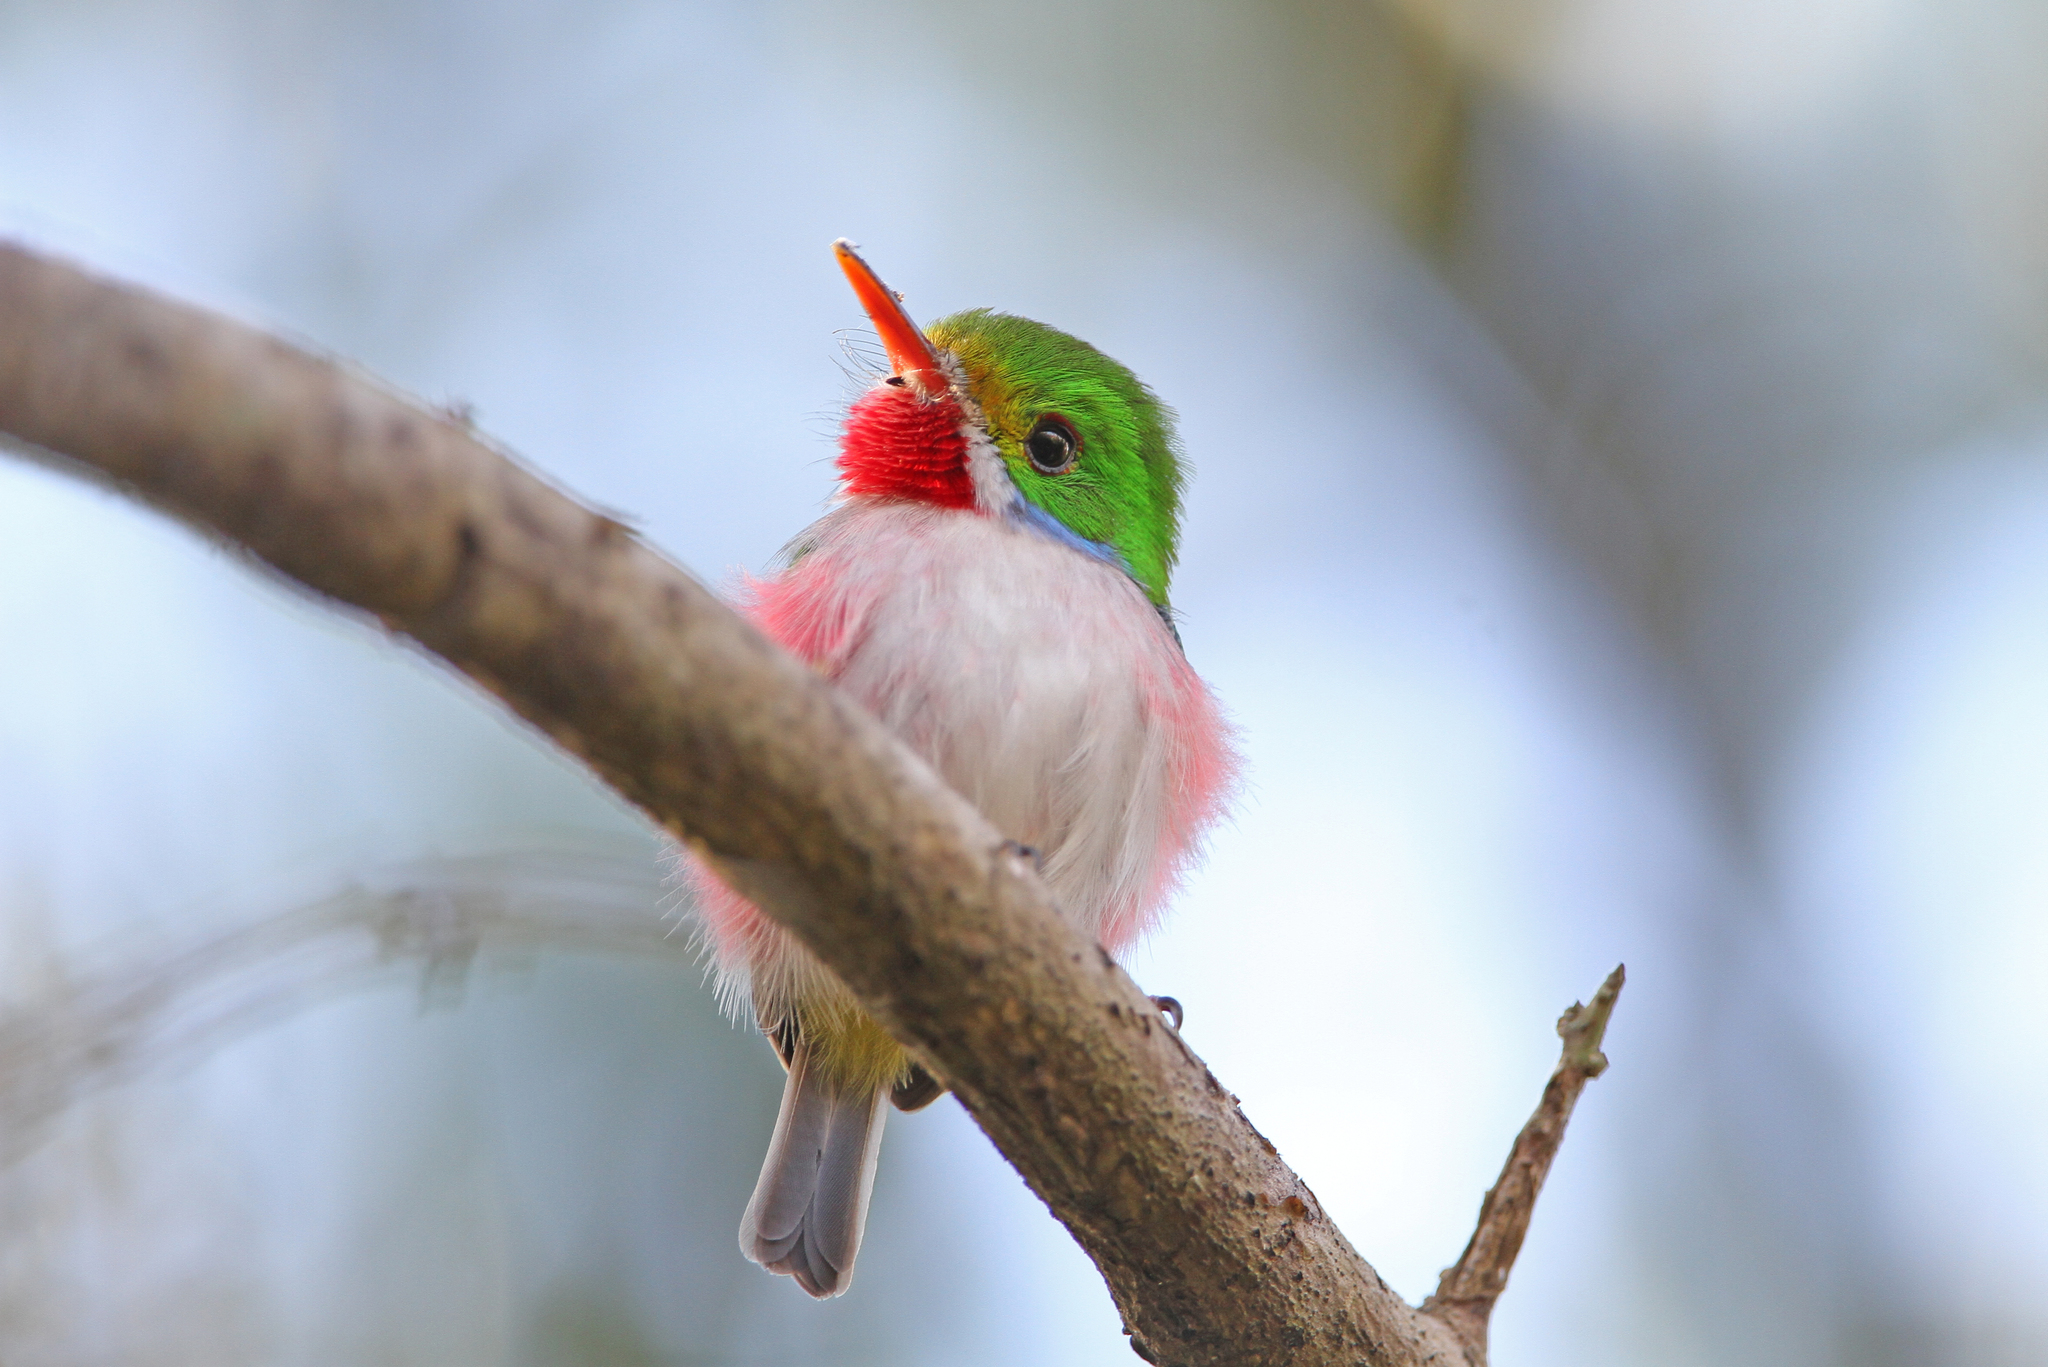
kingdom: Animalia
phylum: Chordata
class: Aves
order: Coraciiformes
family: Todidae
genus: Todus
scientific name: Todus multicolor
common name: Cuban tody
